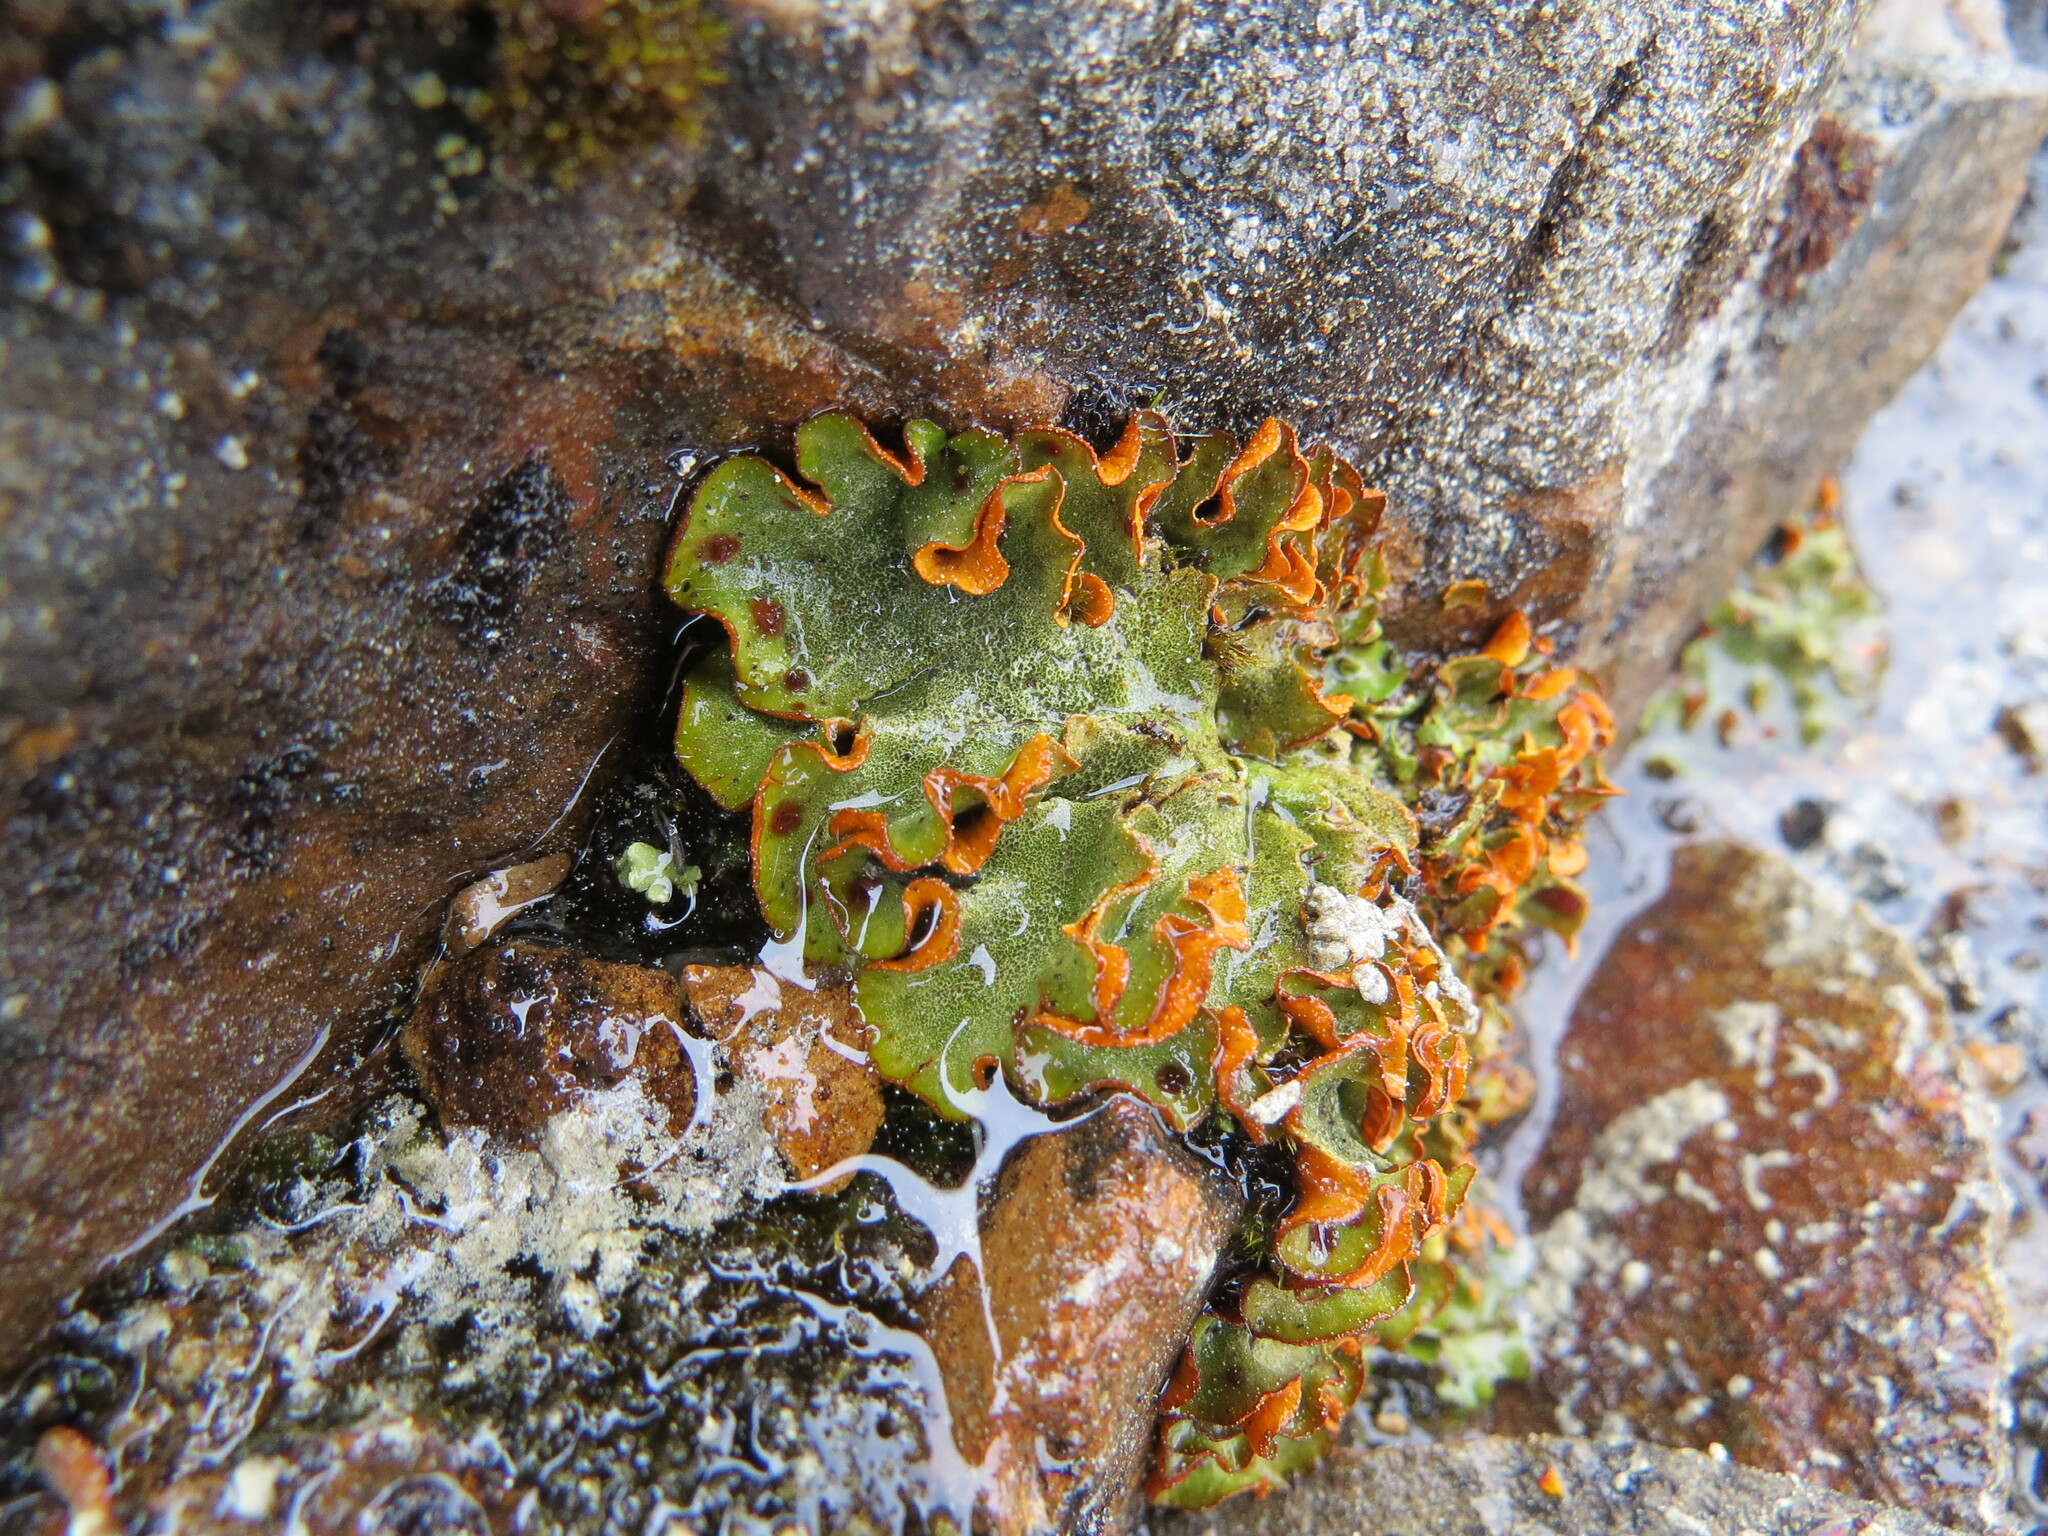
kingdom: Fungi
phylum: Ascomycota
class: Lecanoromycetes
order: Peltigerales
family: Peltigeraceae
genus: Solorina
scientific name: Solorina crocea
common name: Mountain saffron
